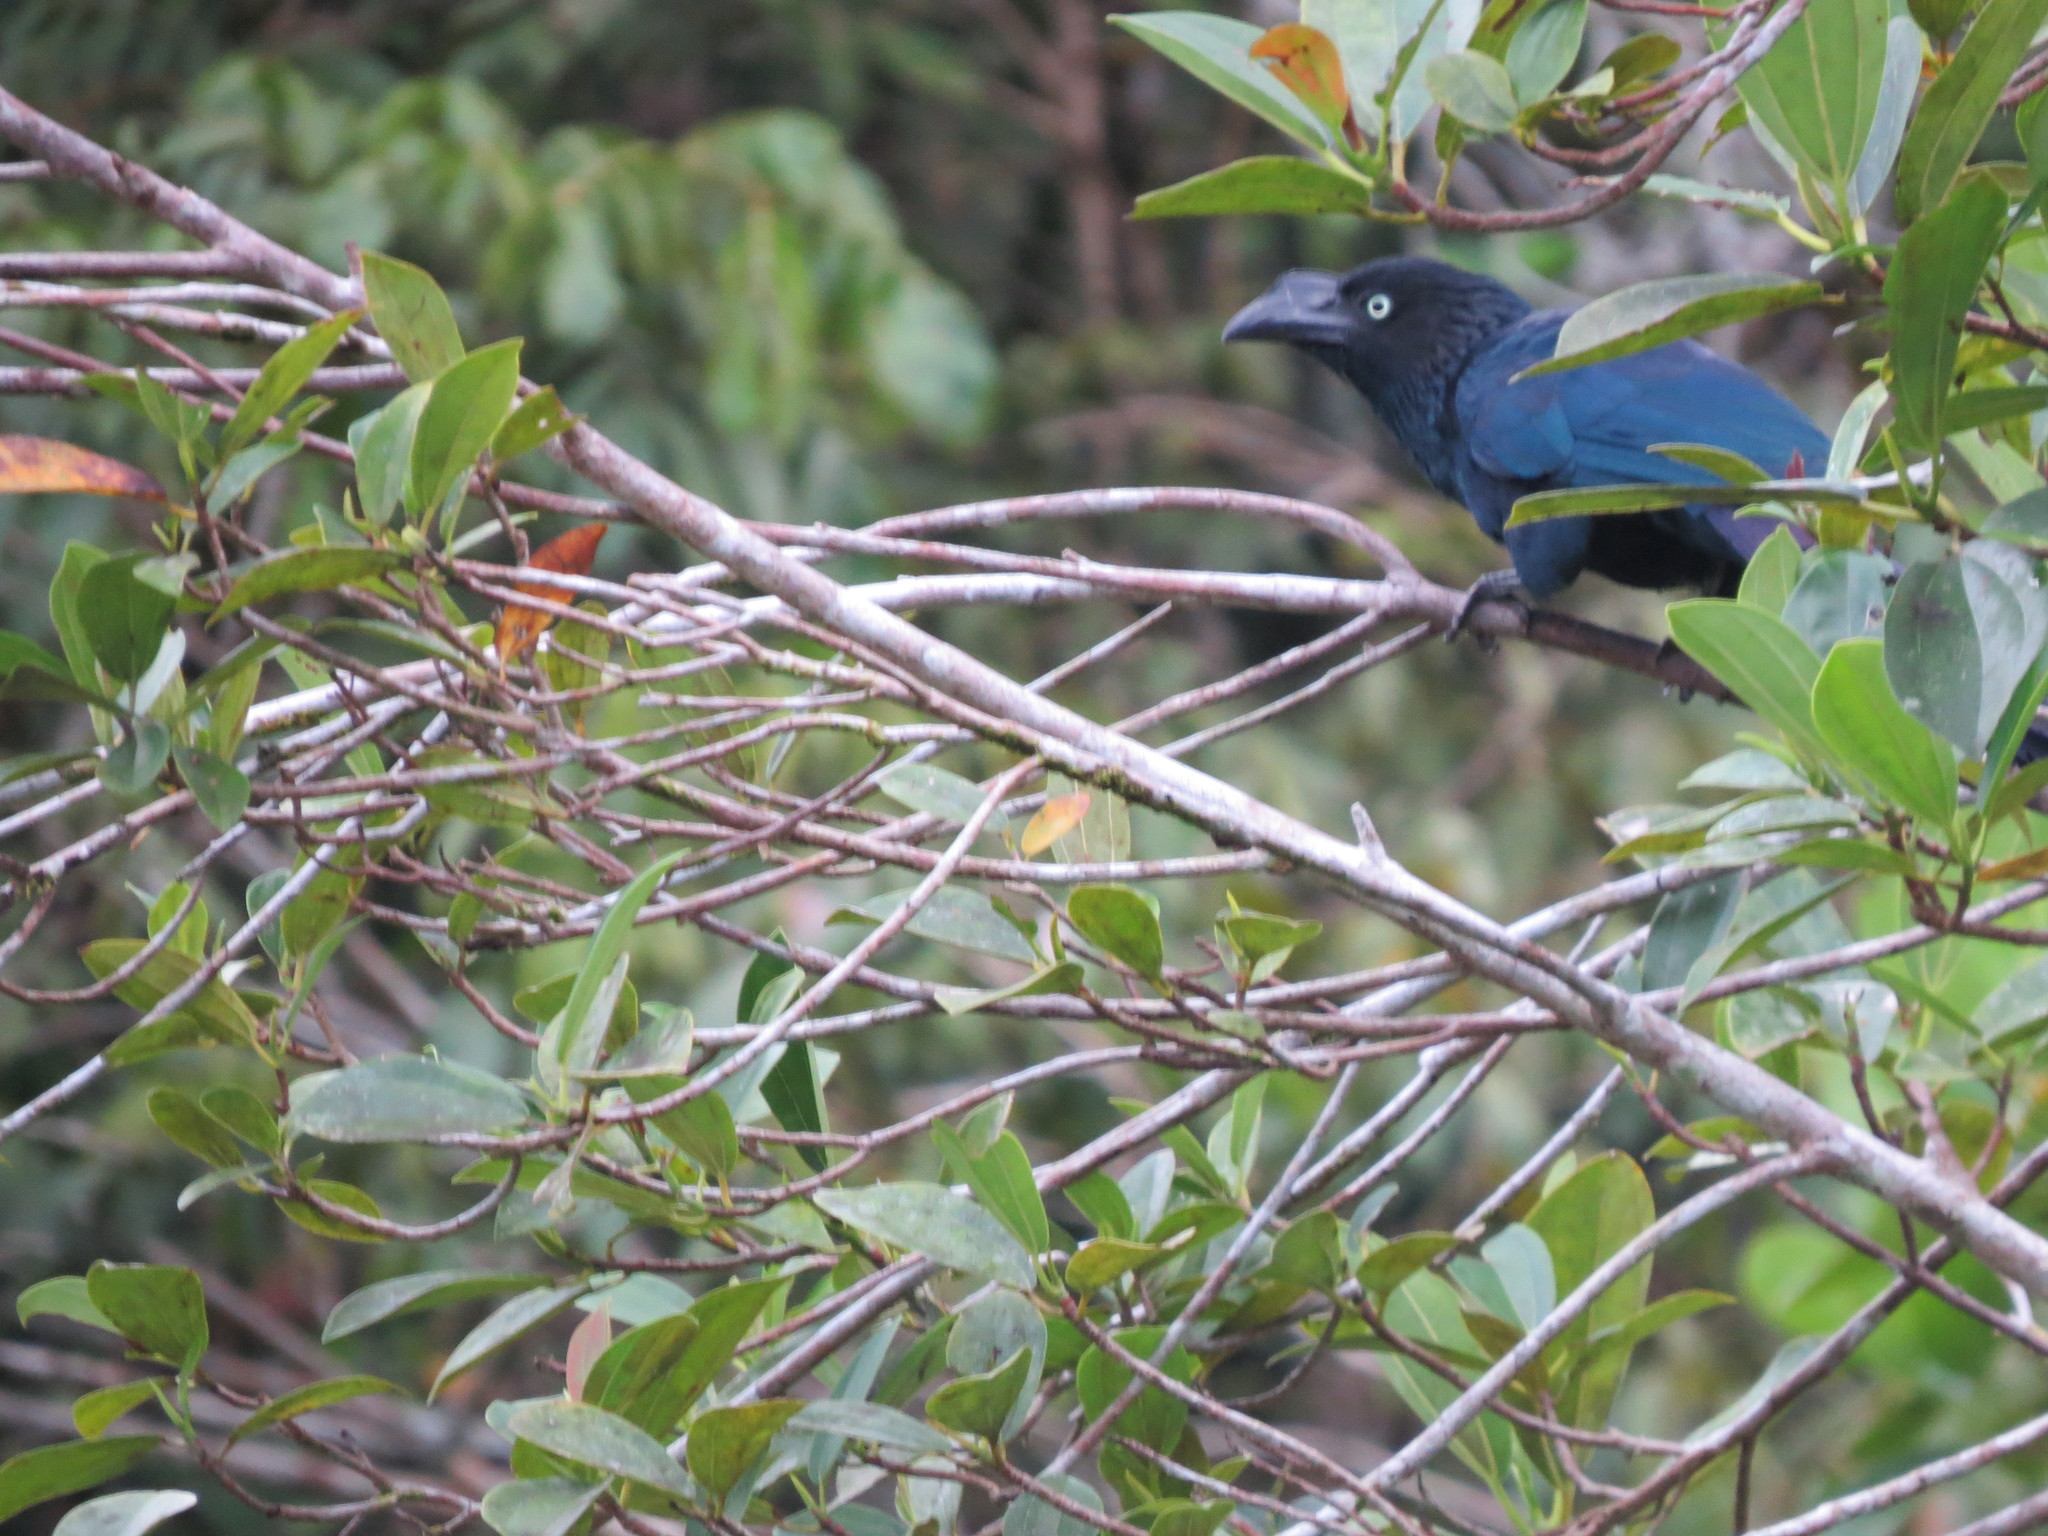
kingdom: Animalia
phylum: Chordata
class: Aves
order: Cuculiformes
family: Cuculidae
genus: Crotophaga
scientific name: Crotophaga major
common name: Greater ani
